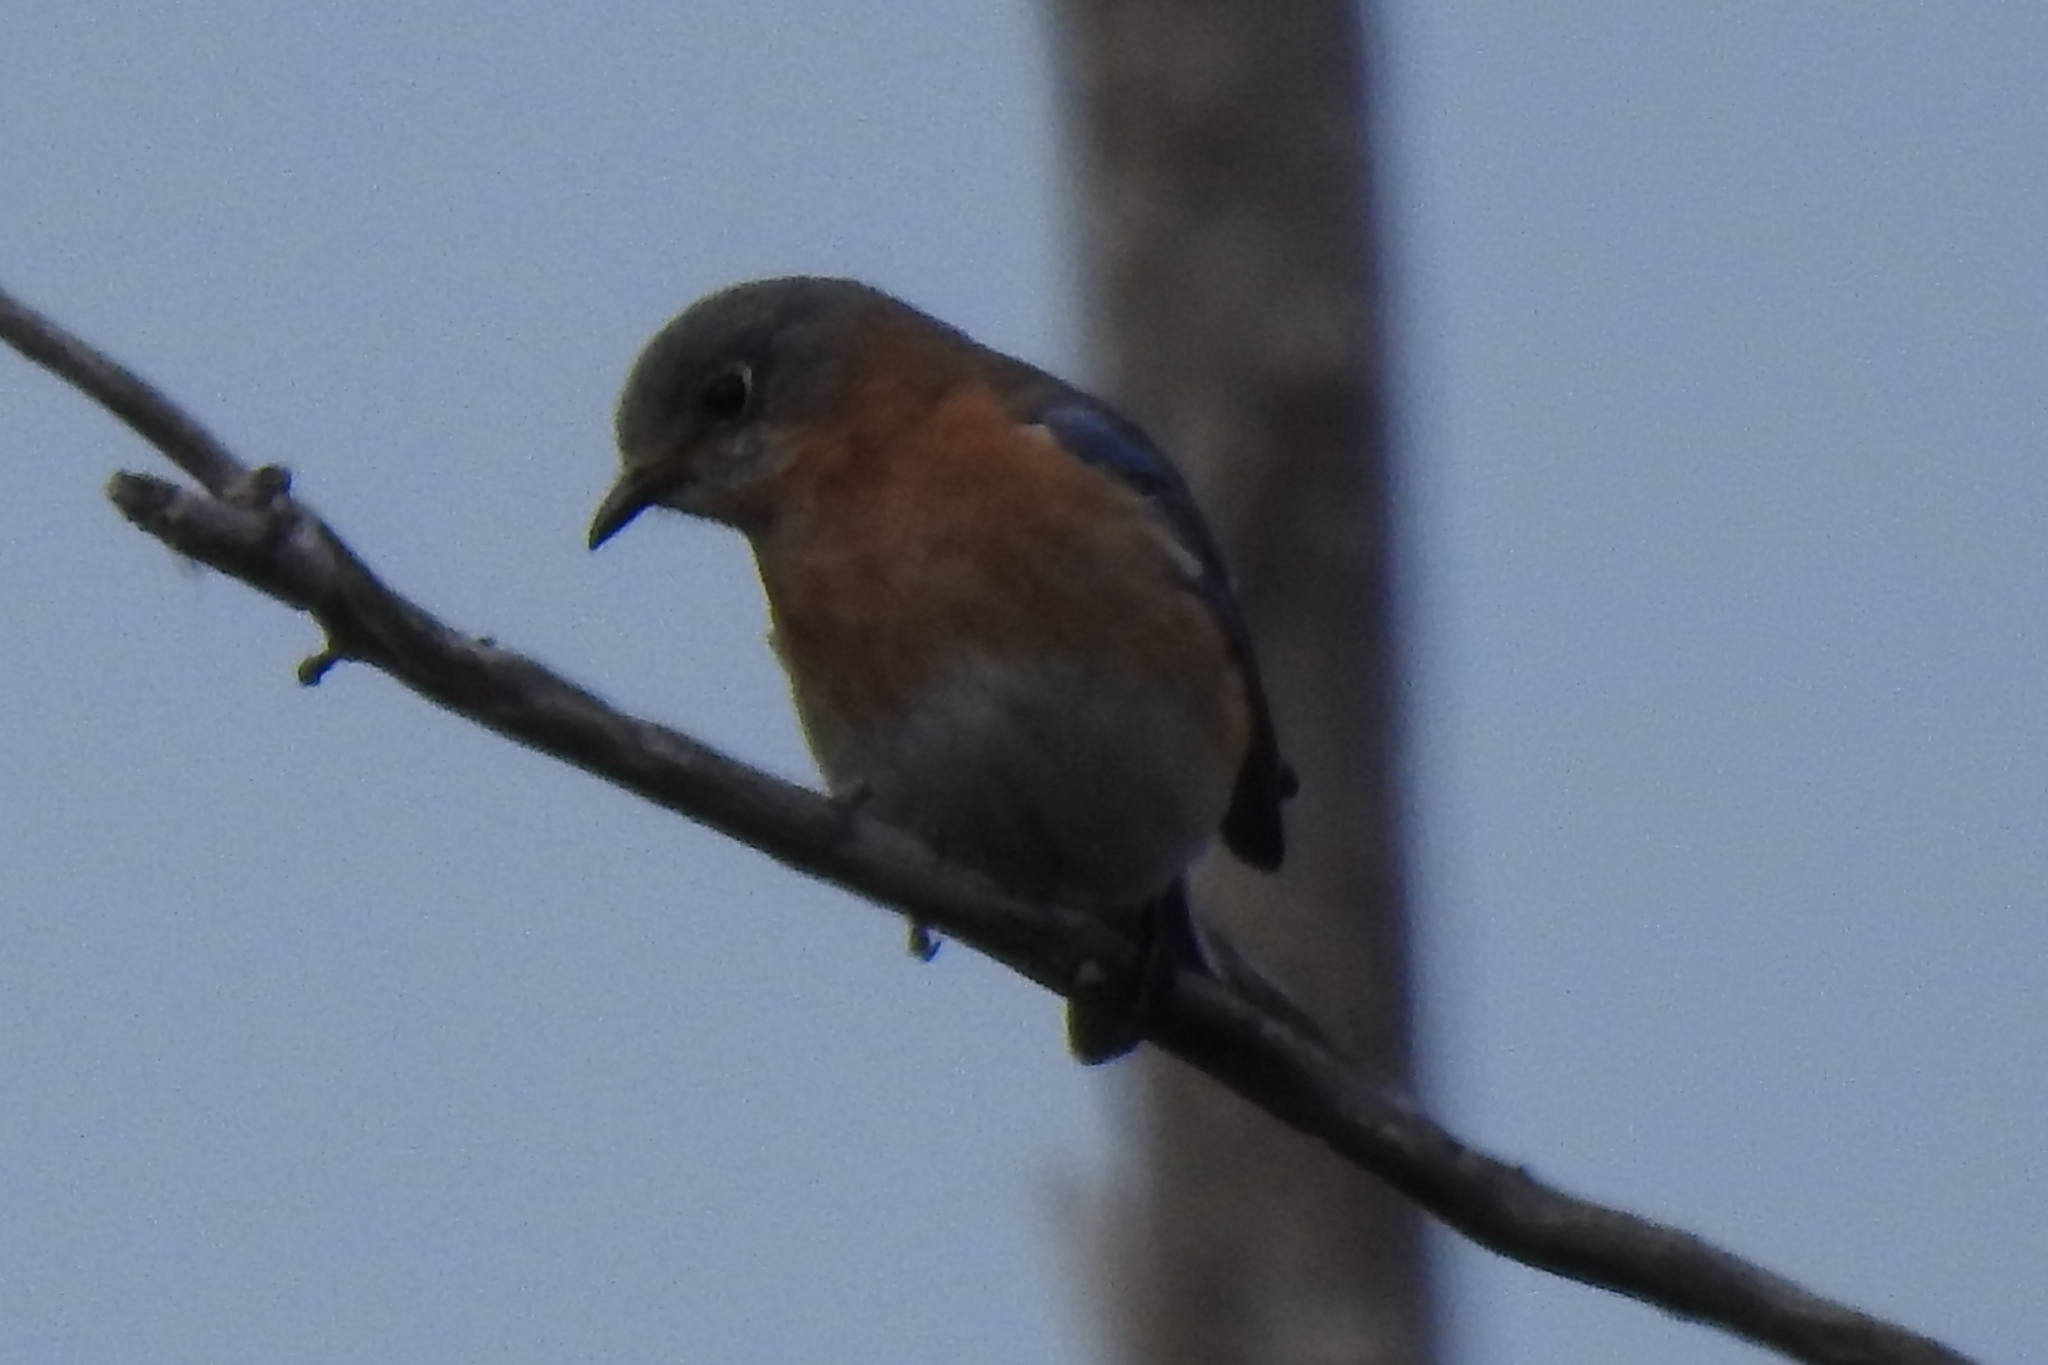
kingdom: Animalia
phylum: Chordata
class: Aves
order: Passeriformes
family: Turdidae
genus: Sialia
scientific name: Sialia sialis
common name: Eastern bluebird
